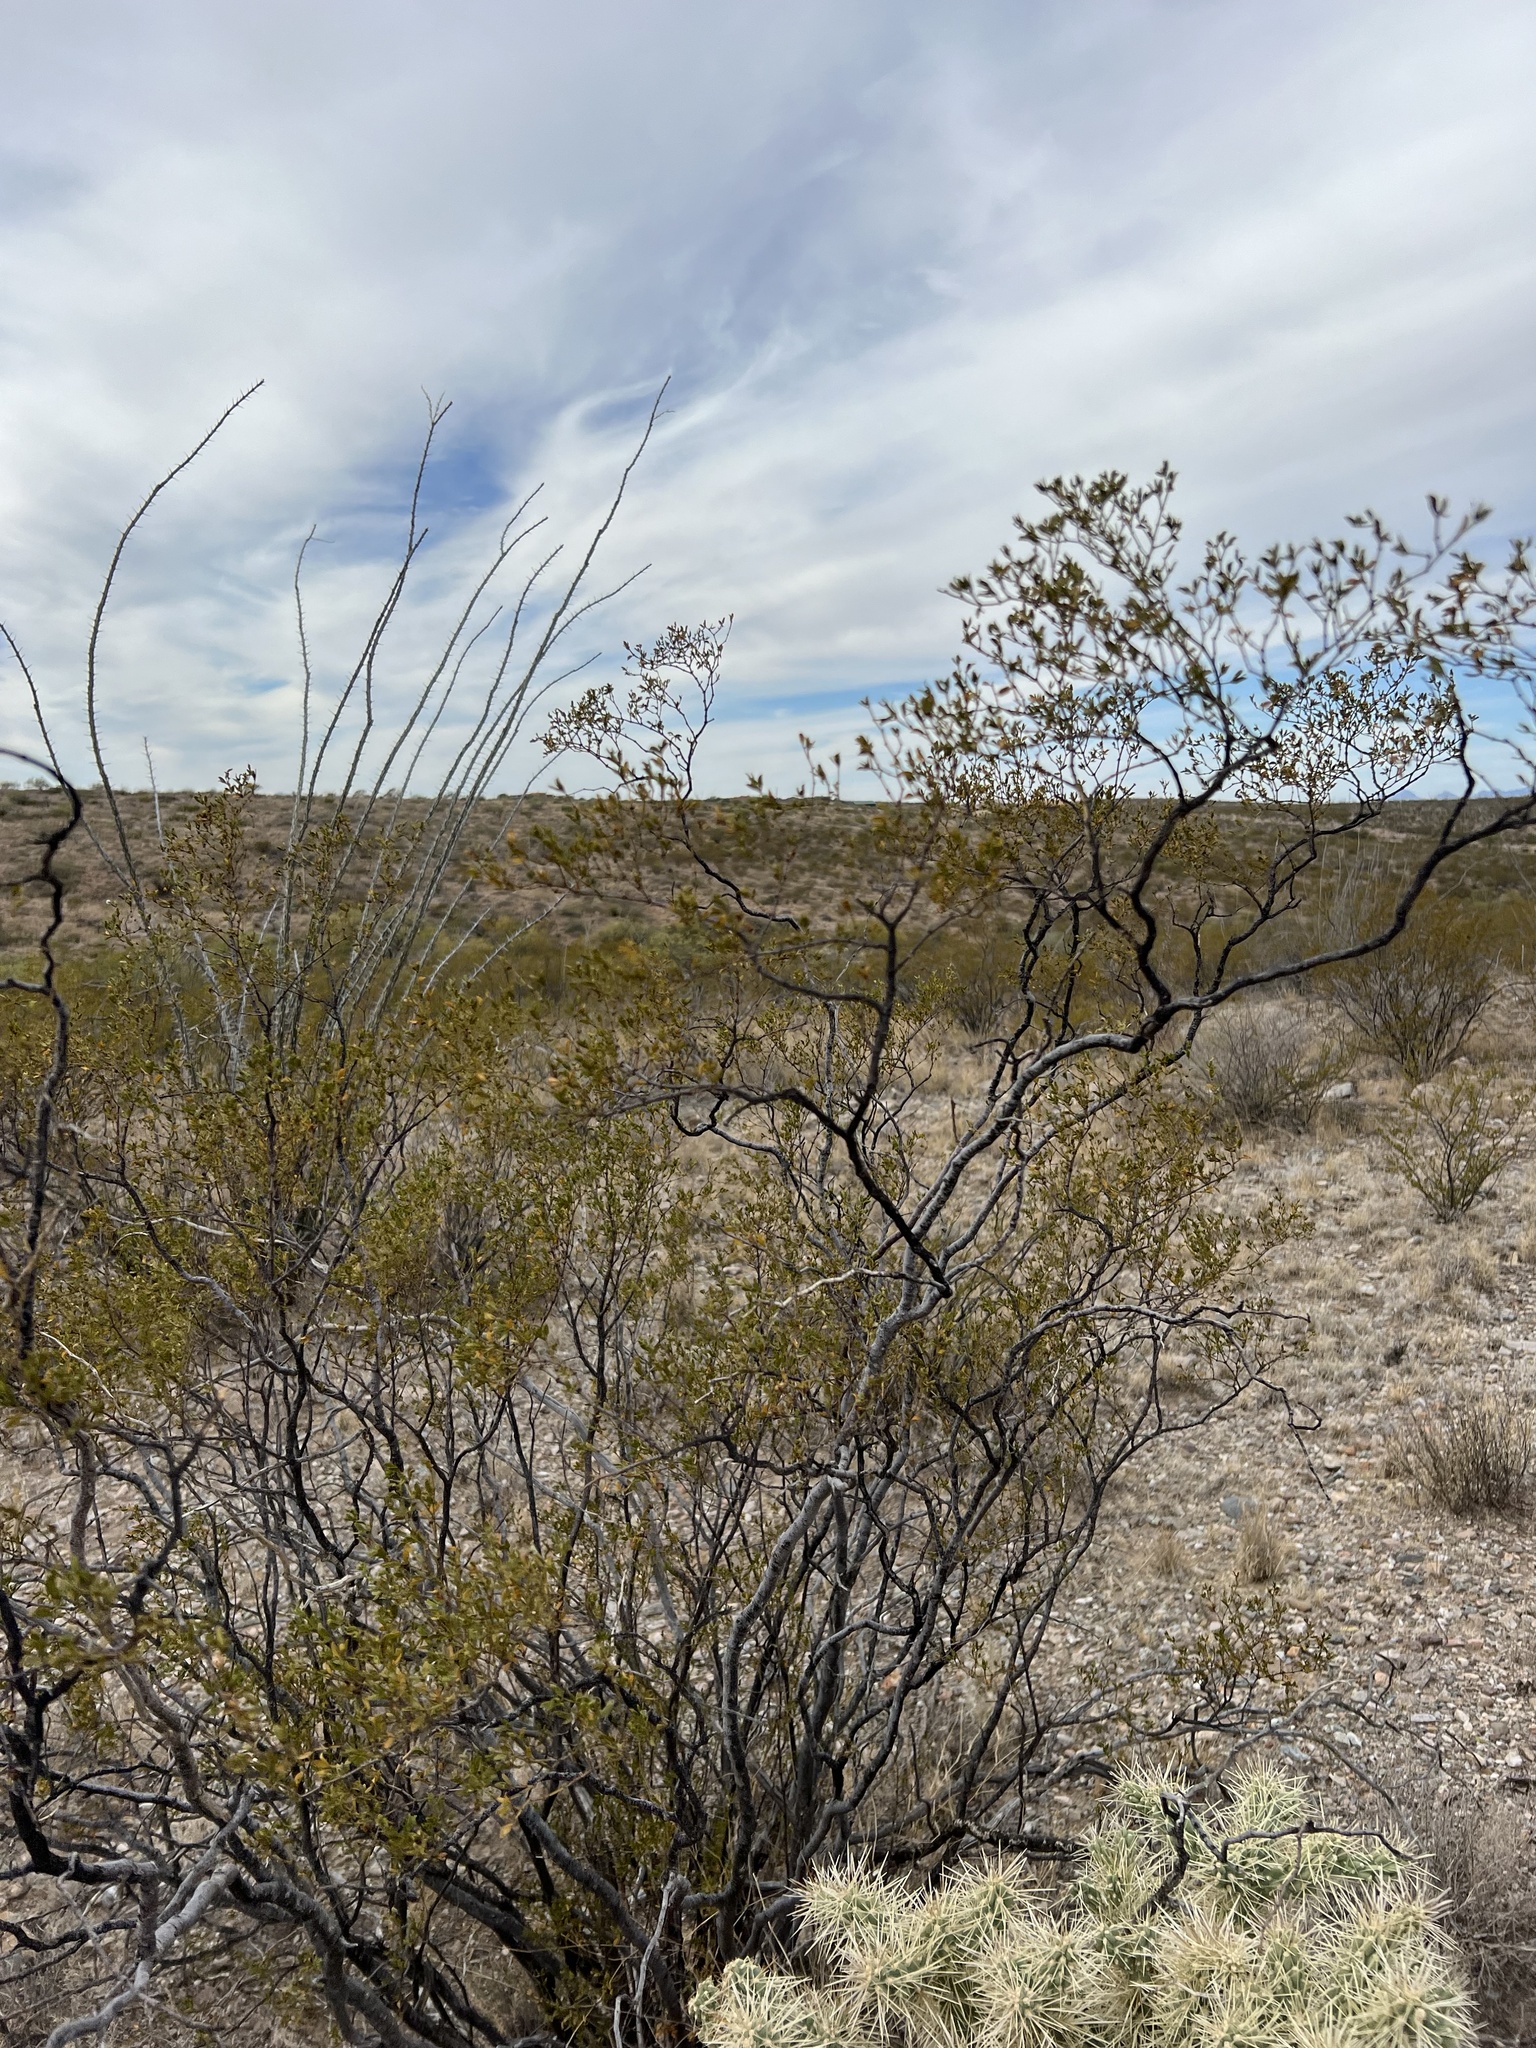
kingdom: Plantae
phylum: Tracheophyta
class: Magnoliopsida
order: Zygophyllales
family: Zygophyllaceae
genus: Larrea
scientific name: Larrea tridentata
